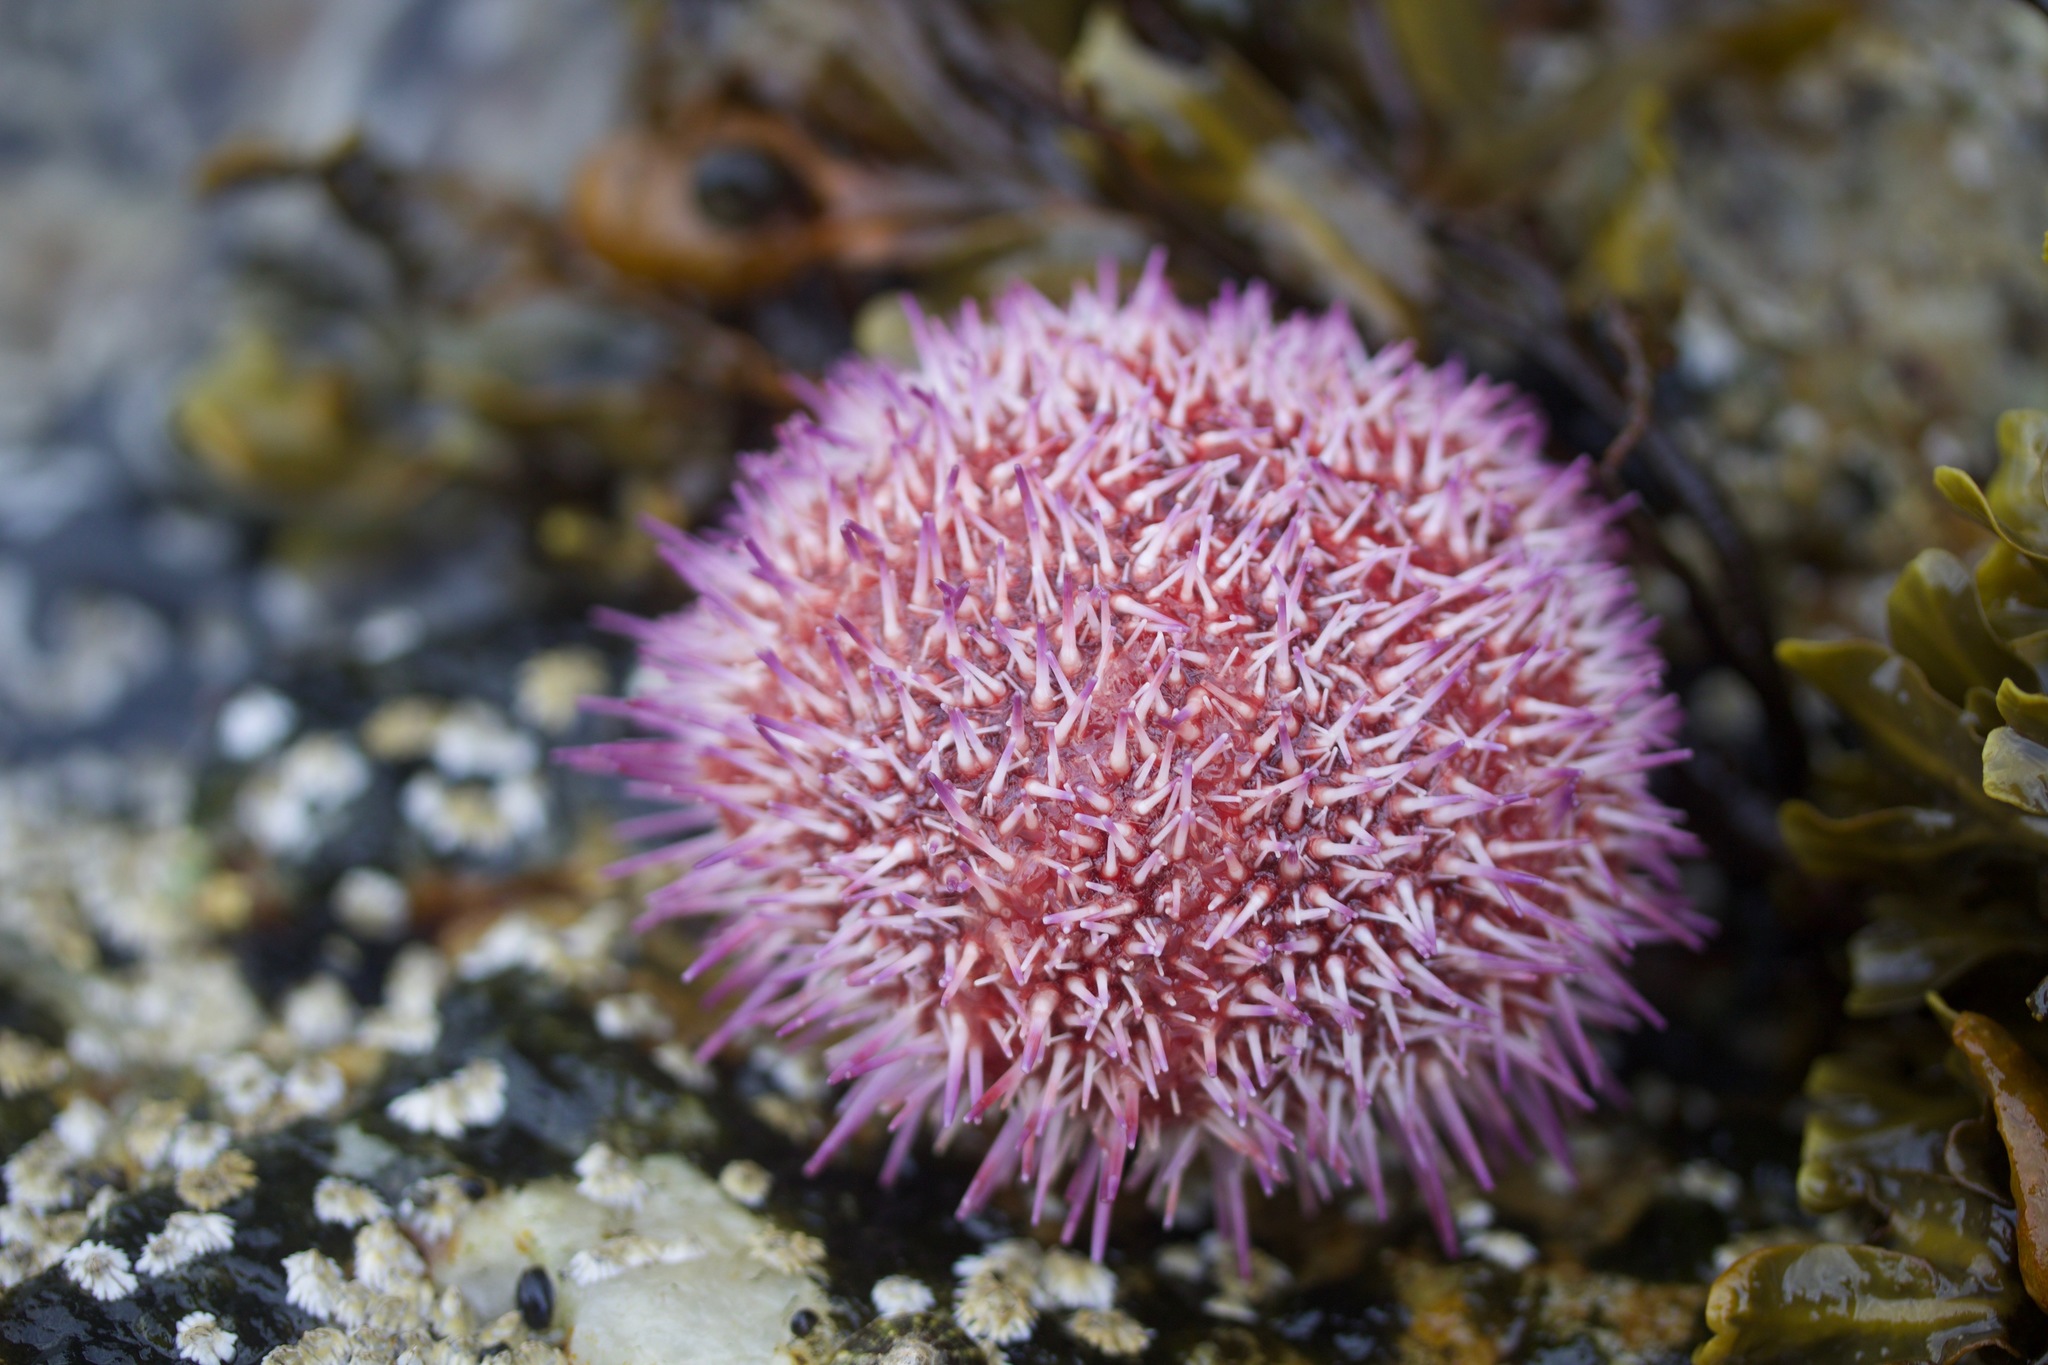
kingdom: Animalia
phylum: Echinodermata
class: Echinoidea
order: Camarodonta
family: Echinidae
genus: Echinus
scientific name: Echinus esculentus
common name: Edible sea urchin
